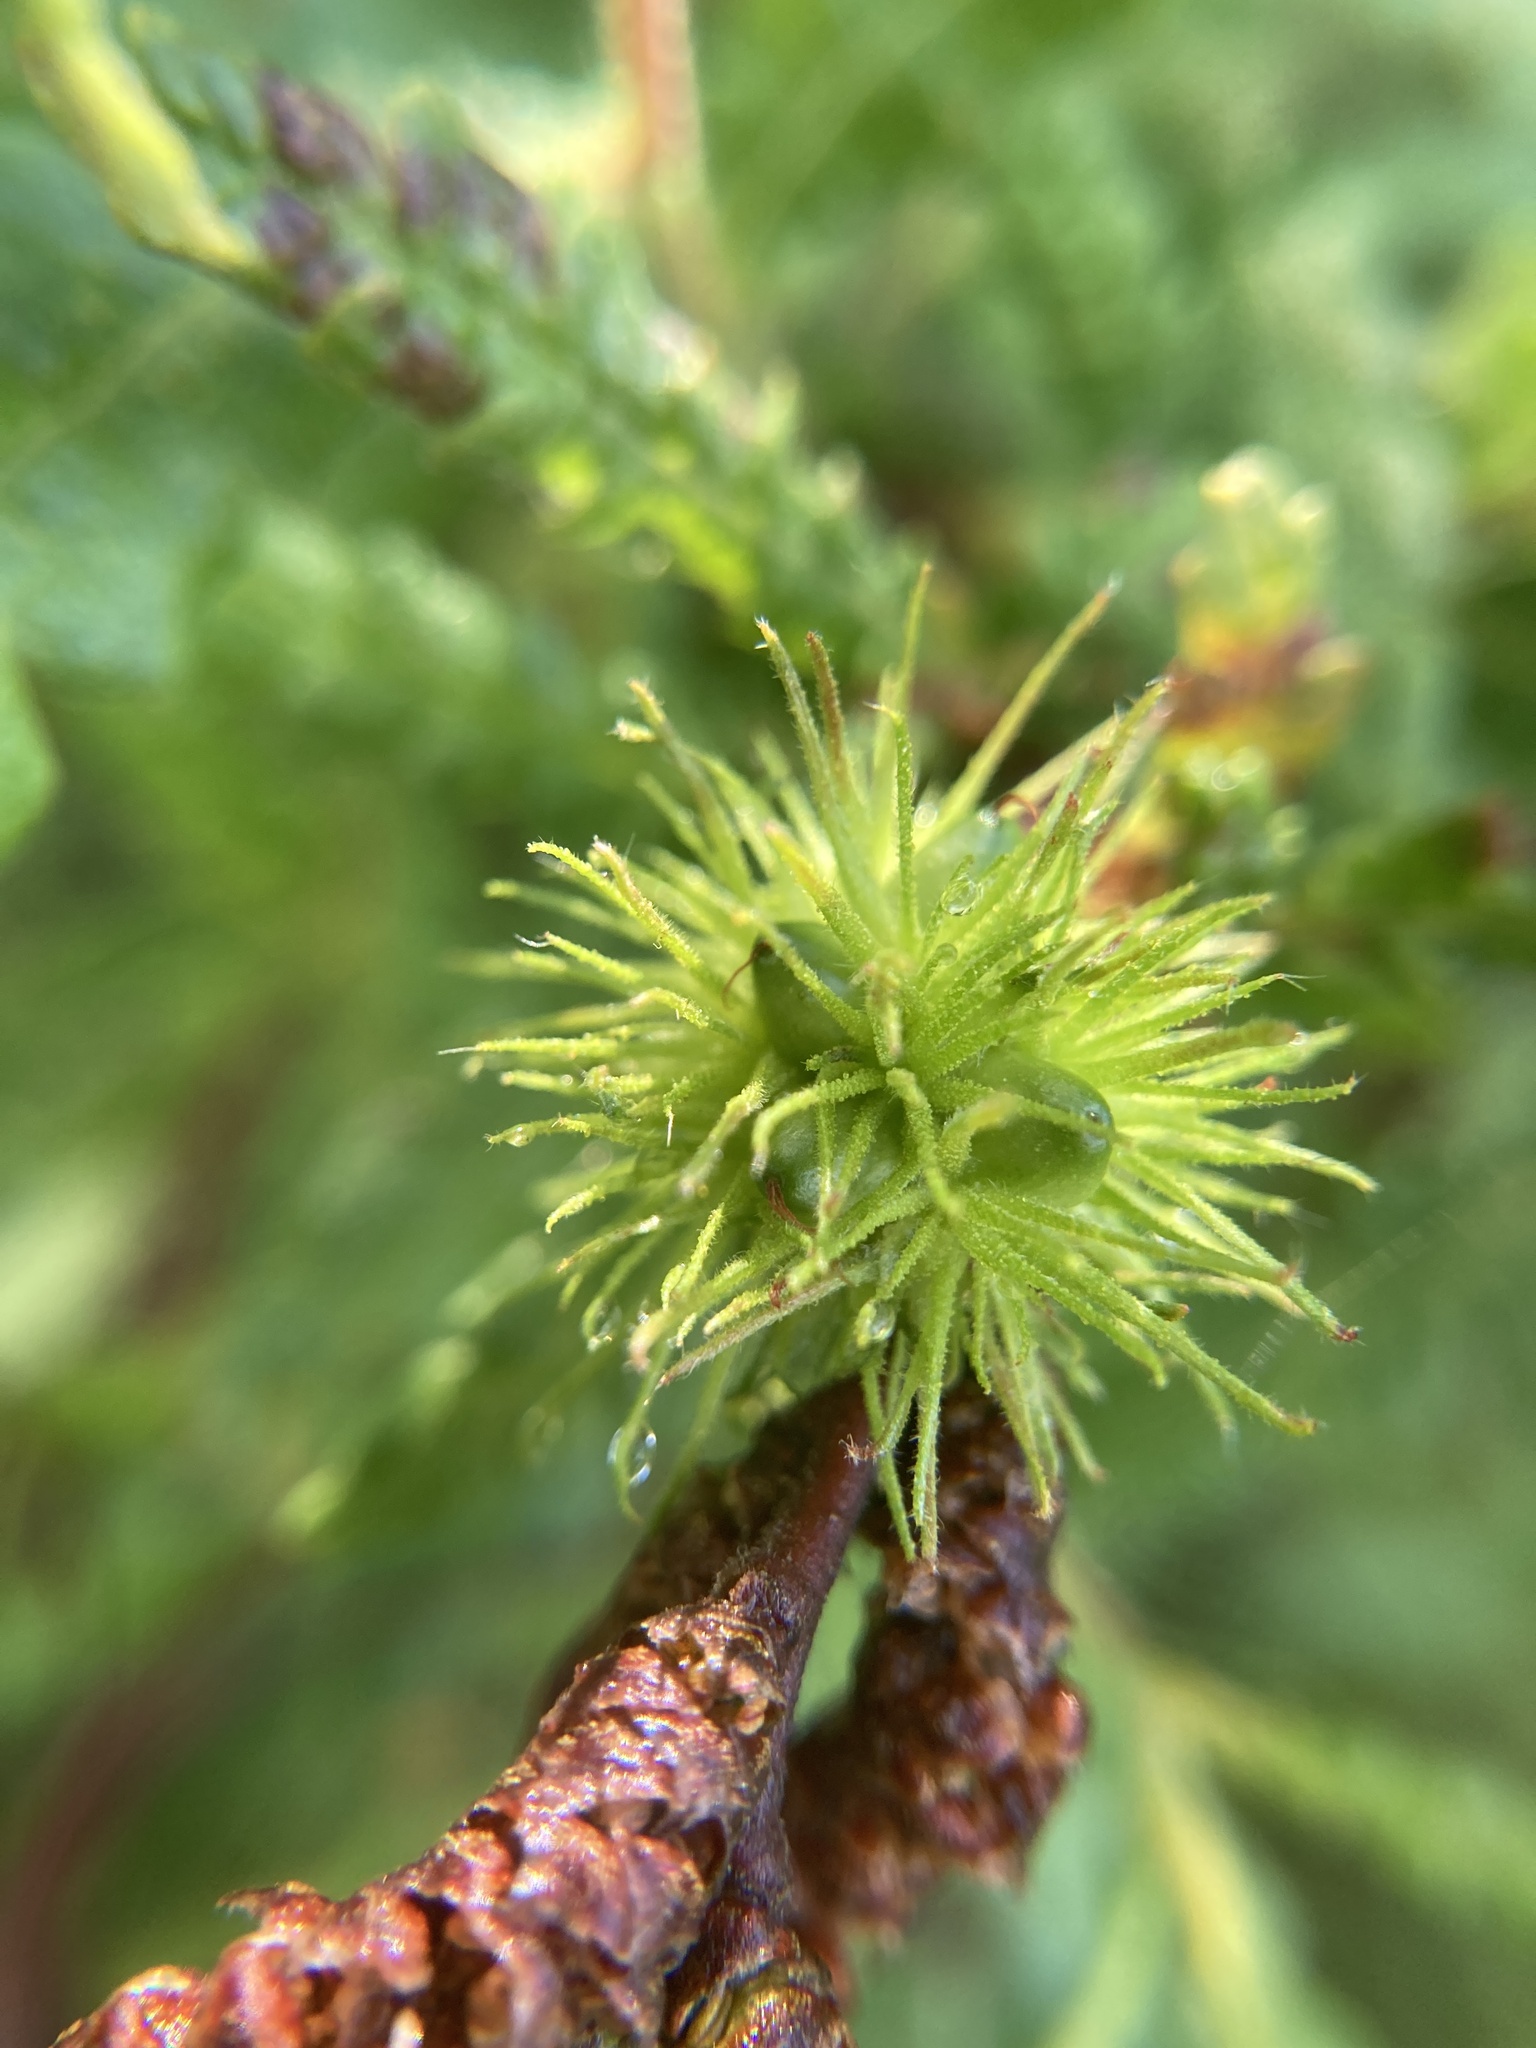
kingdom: Plantae
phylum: Tracheophyta
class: Magnoliopsida
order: Fagales
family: Myricaceae
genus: Comptonia
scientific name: Comptonia peregrina
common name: Sweet-fern
